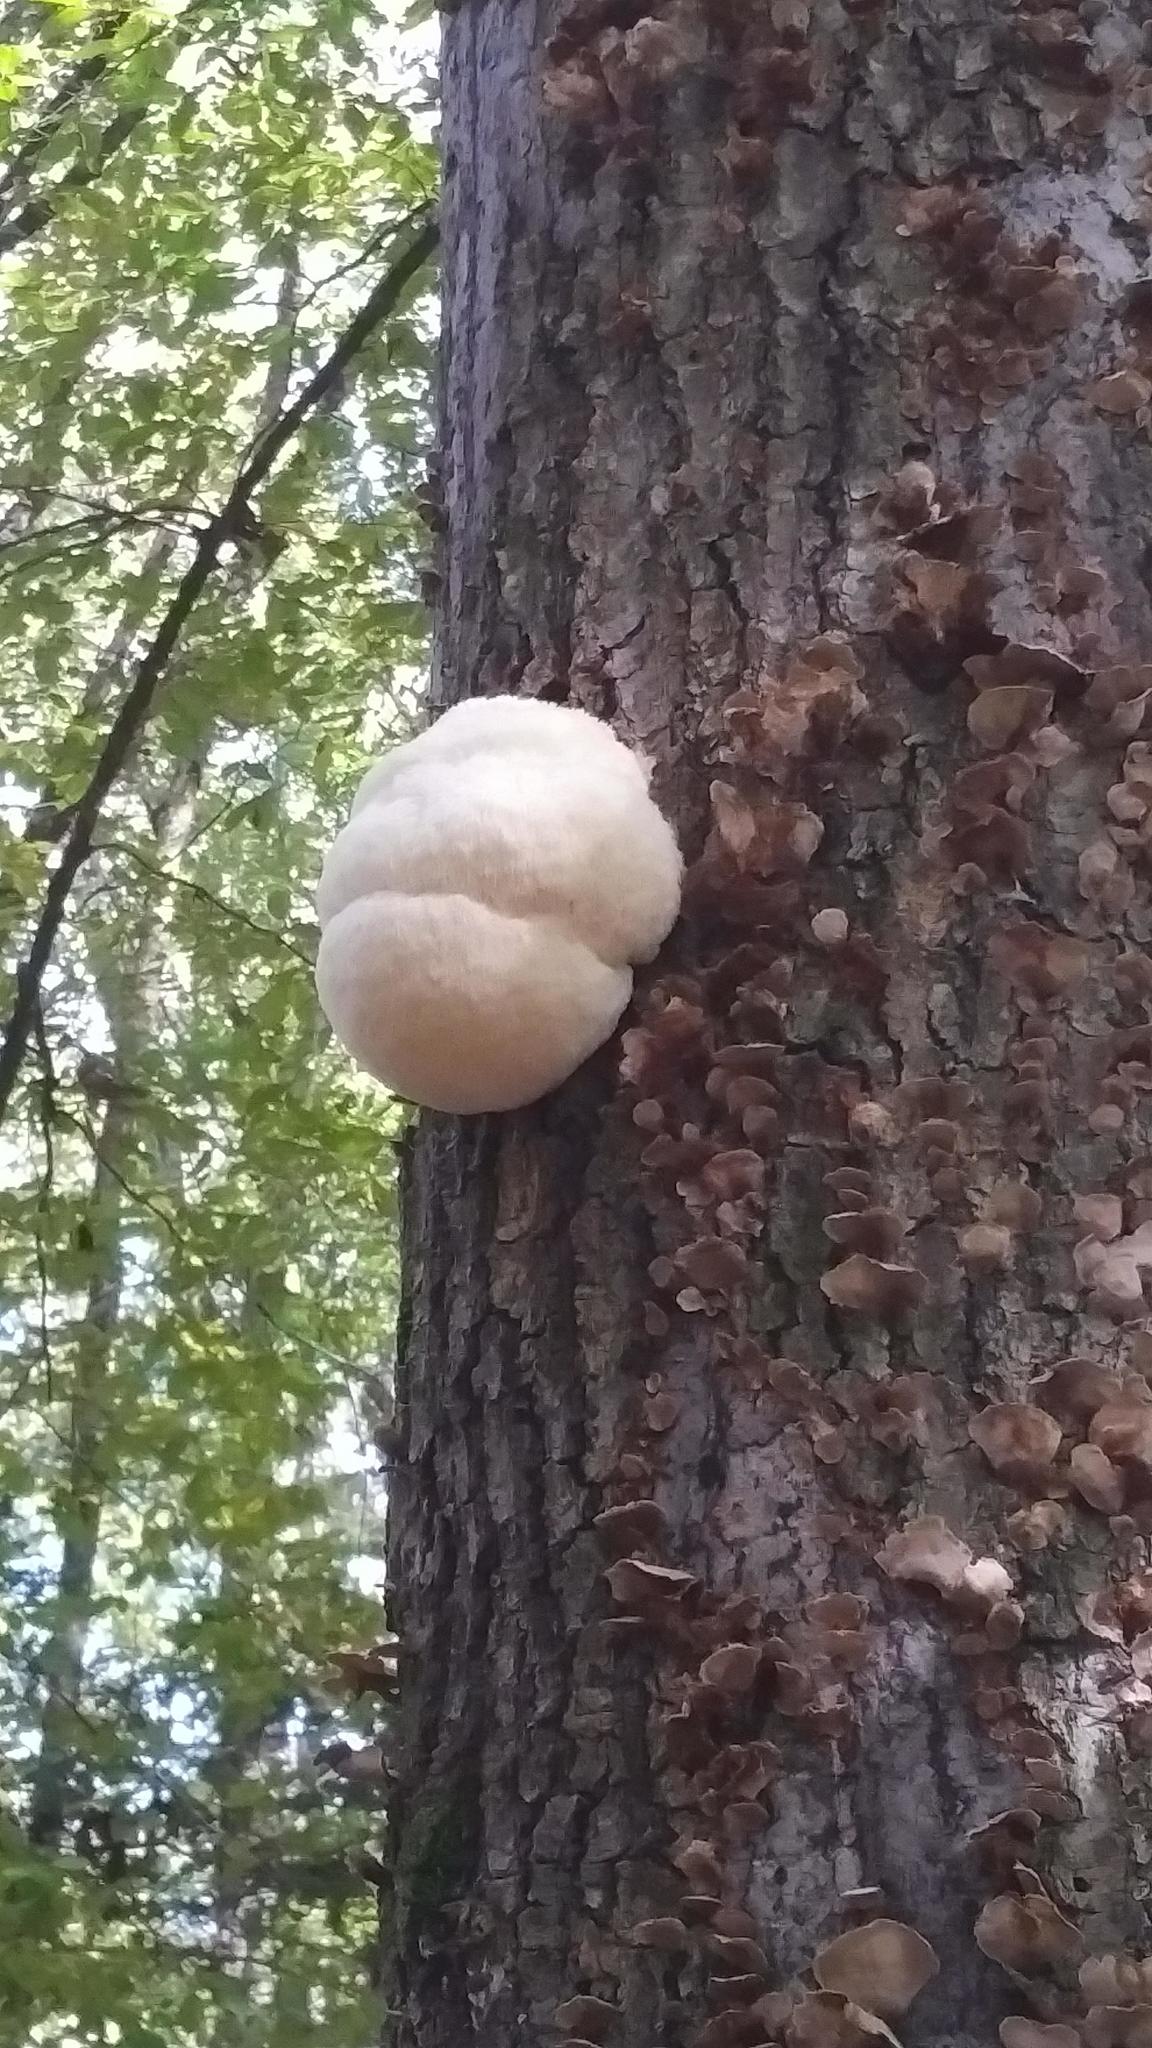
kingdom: Fungi
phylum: Basidiomycota
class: Agaricomycetes
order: Russulales
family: Hericiaceae
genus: Hericium
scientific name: Hericium erinaceus
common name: Bearded tooth
